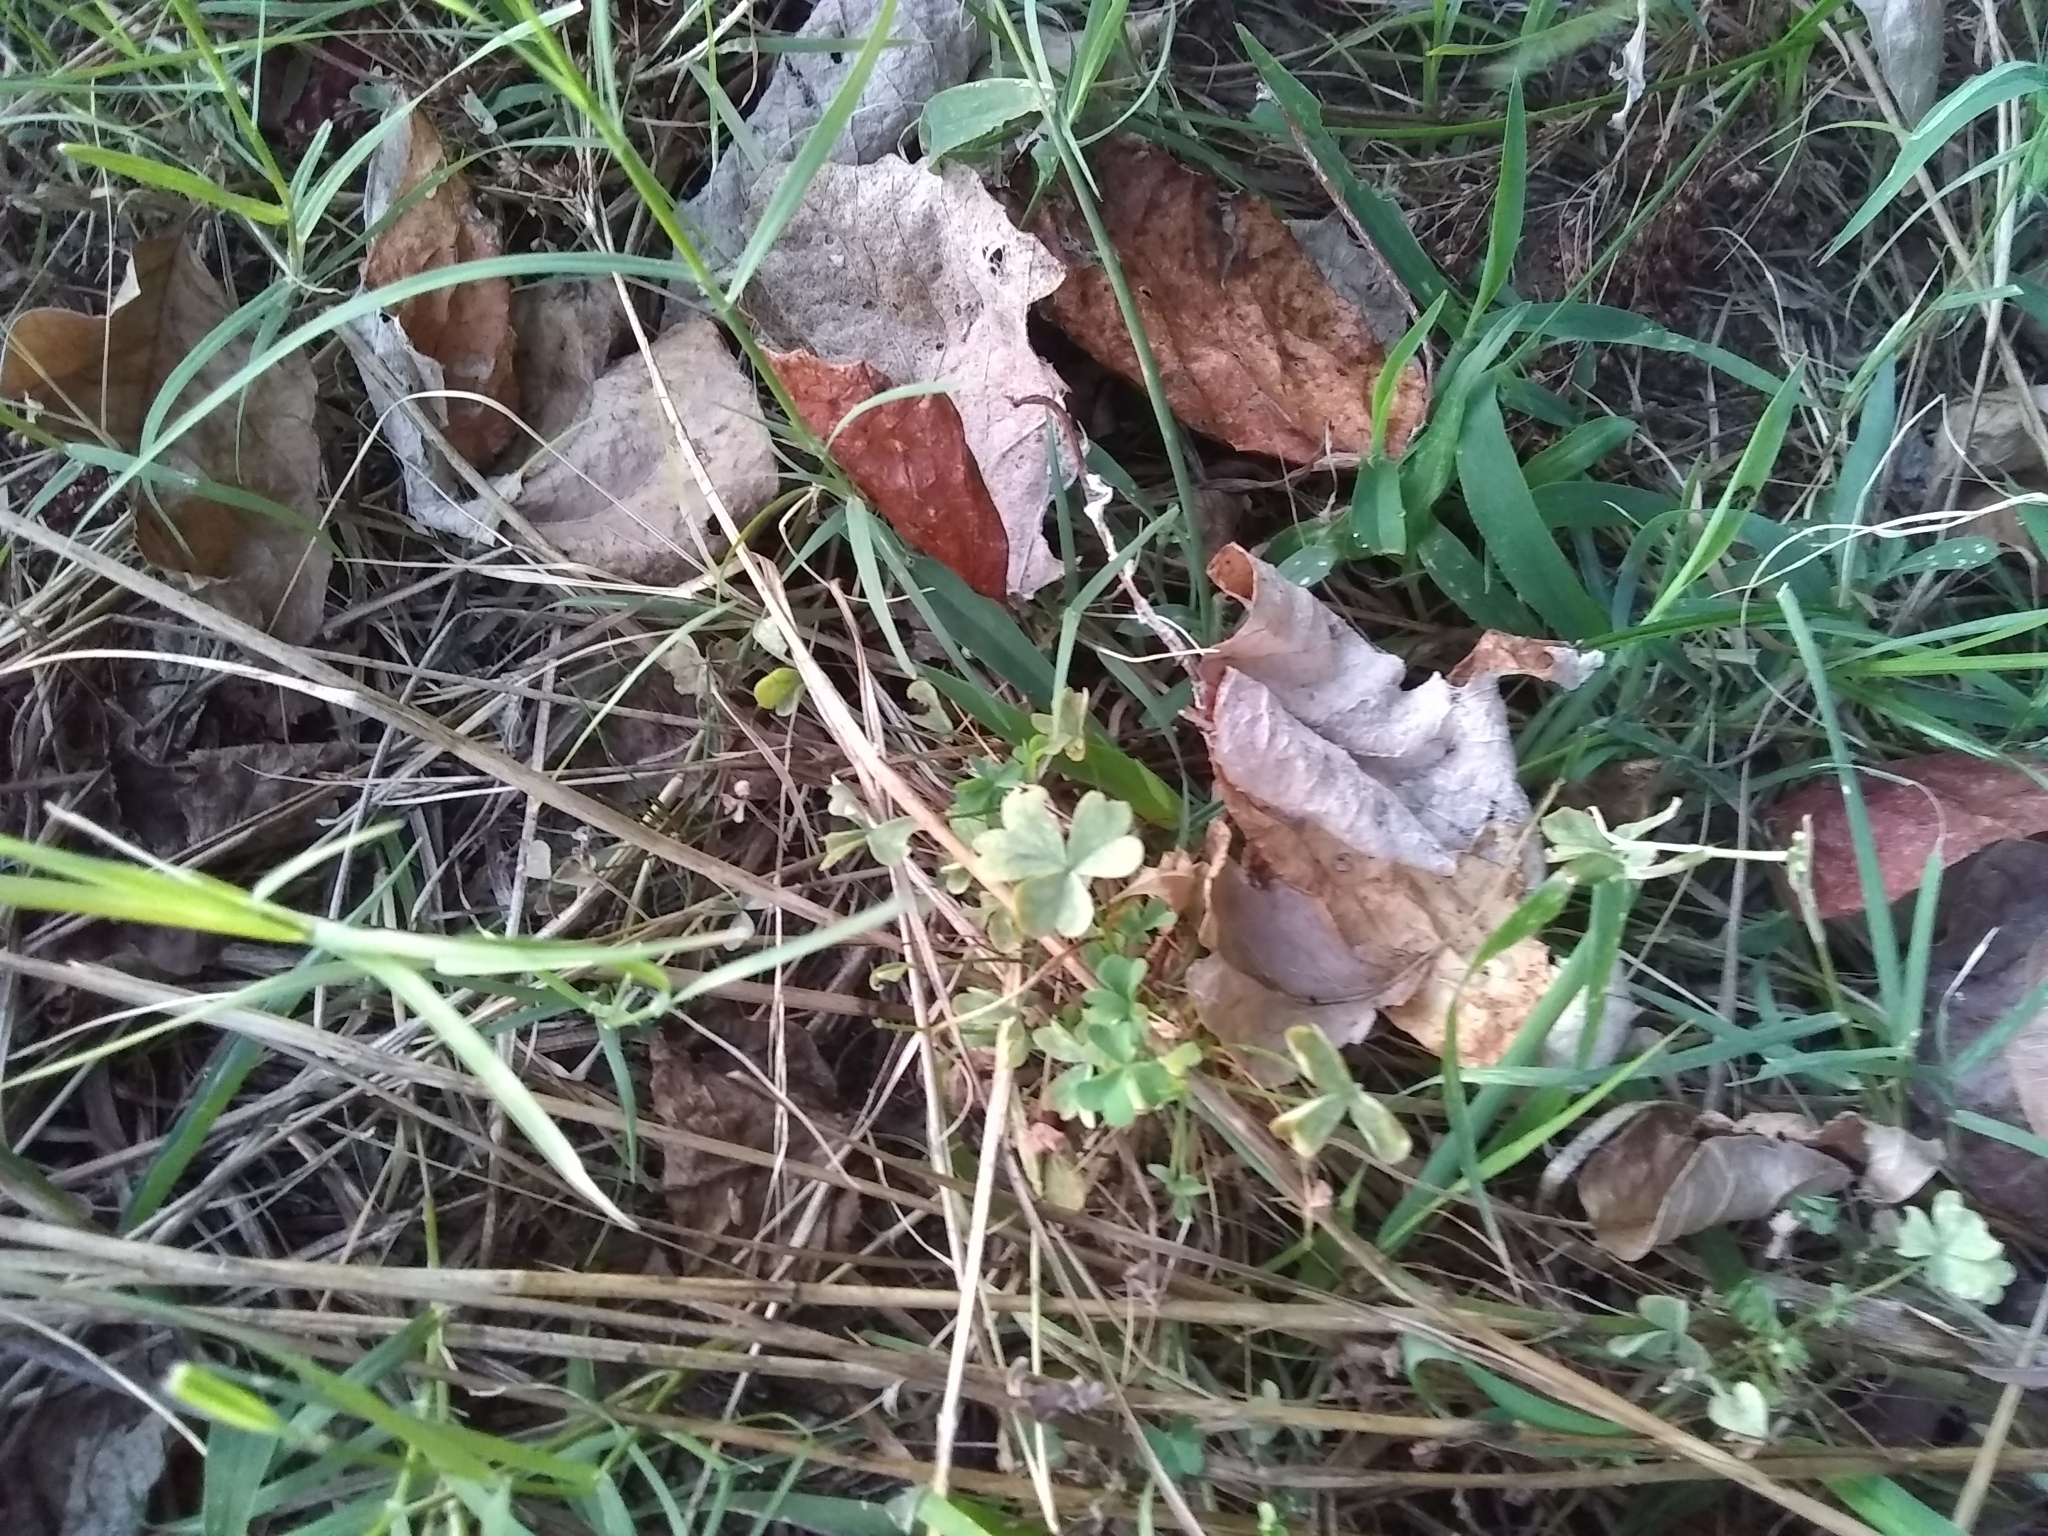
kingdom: Plantae
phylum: Tracheophyta
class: Magnoliopsida
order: Oxalidales
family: Oxalidaceae
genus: Oxalis
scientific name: Oxalis
